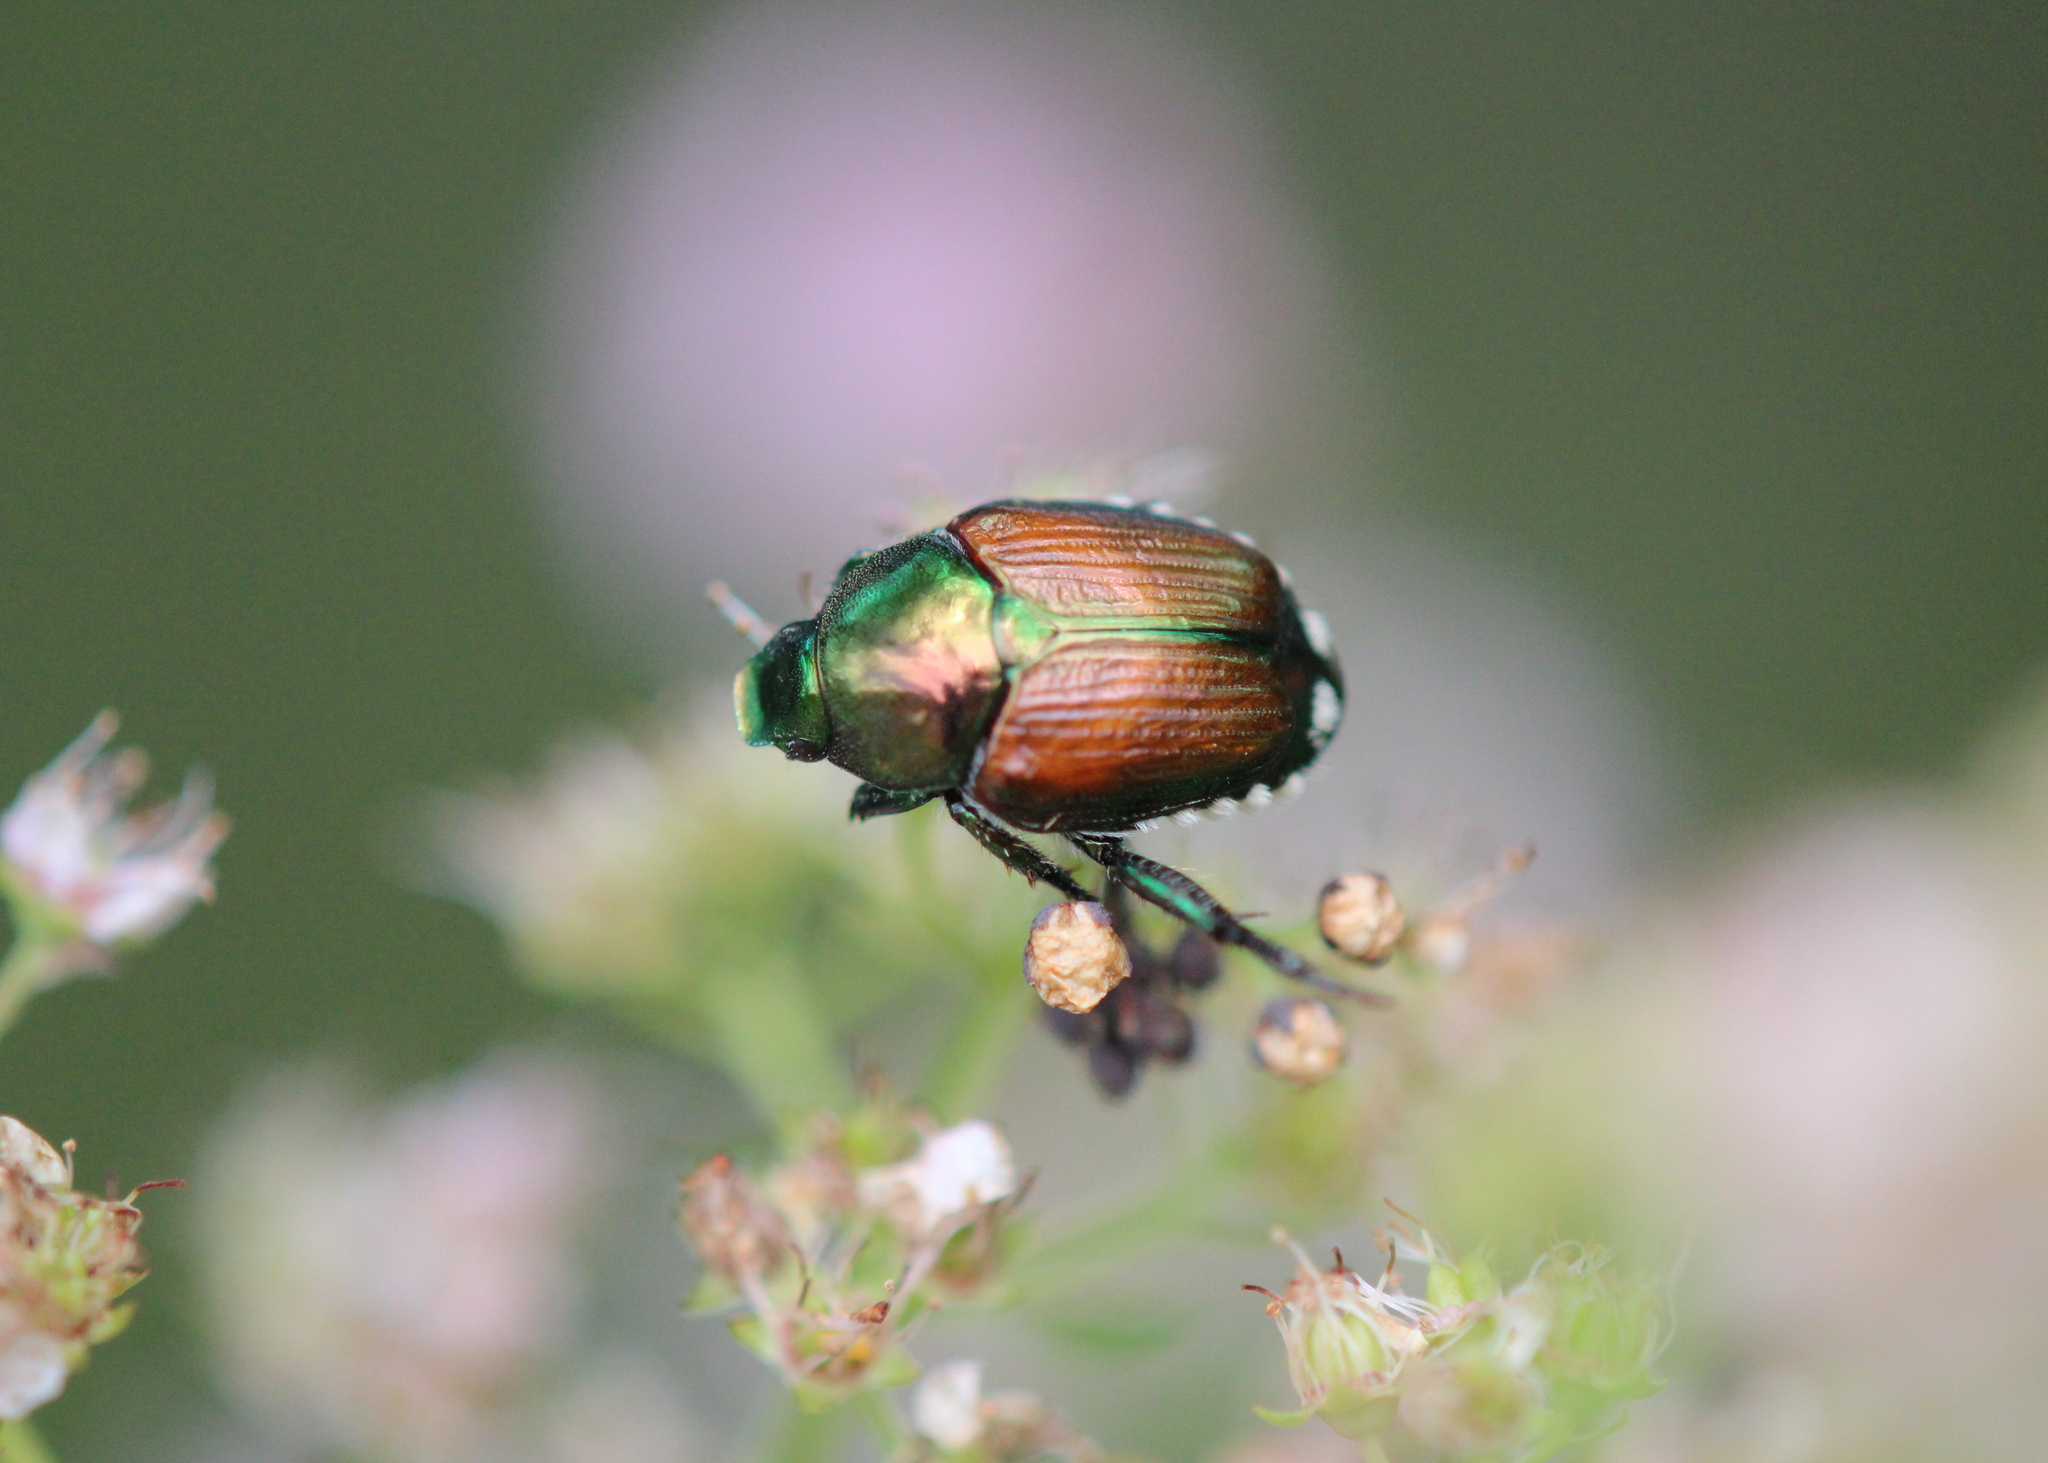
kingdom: Animalia
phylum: Arthropoda
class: Insecta
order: Coleoptera
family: Scarabaeidae
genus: Popillia
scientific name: Popillia japonica
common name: Japanese beetle
